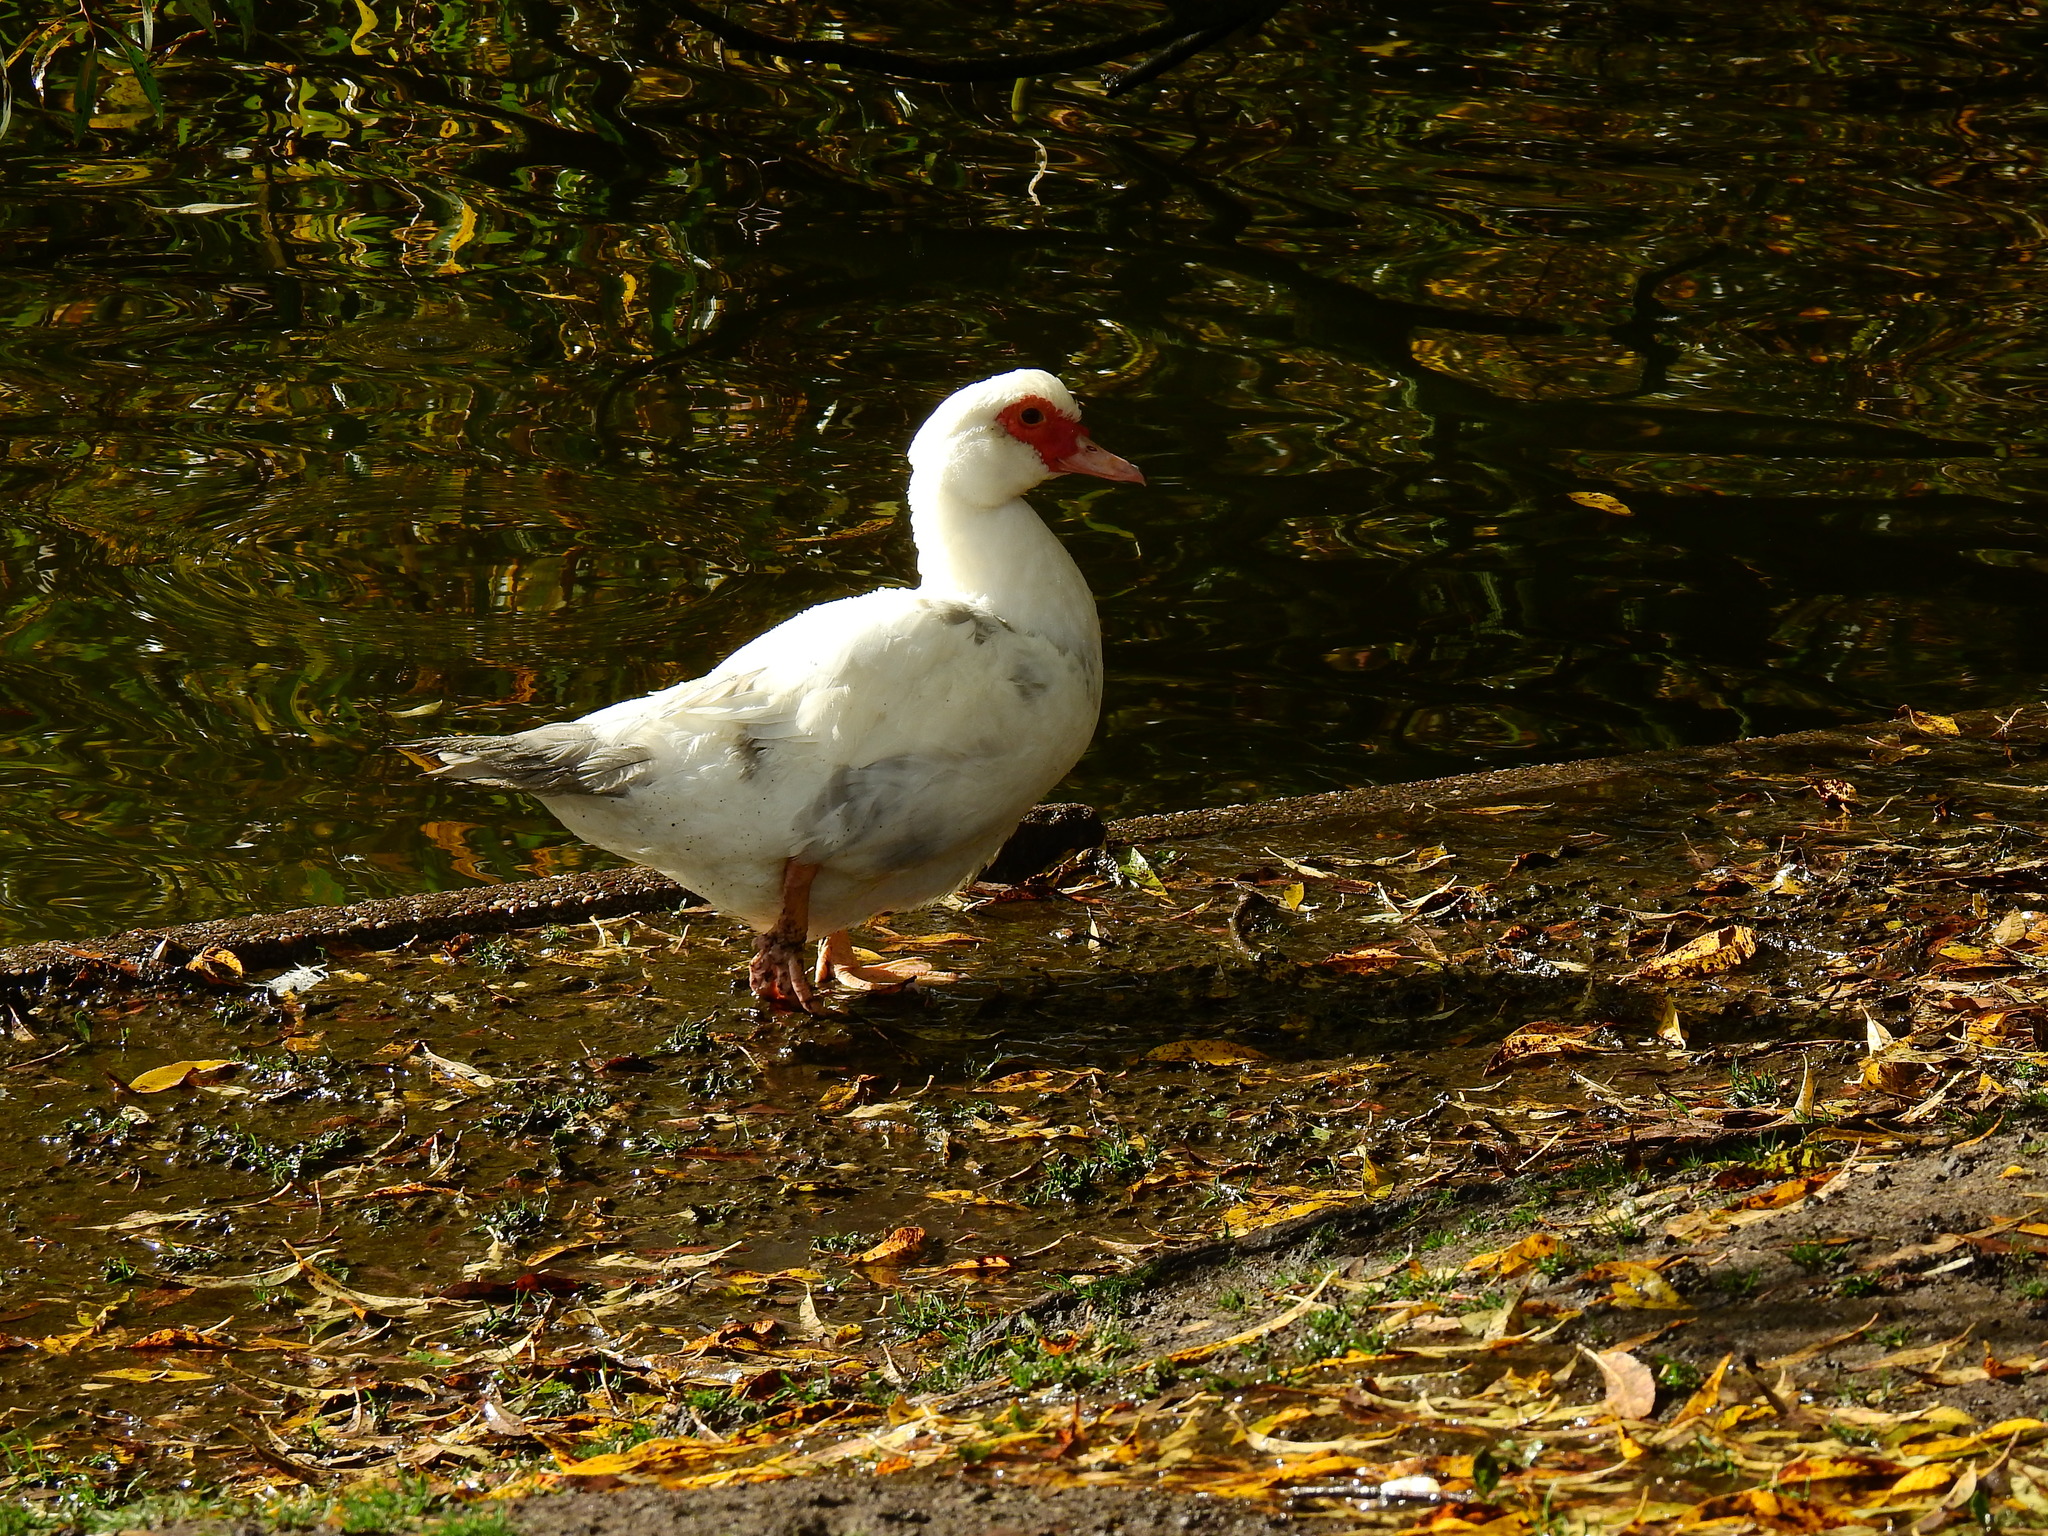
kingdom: Animalia
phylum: Chordata
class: Aves
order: Anseriformes
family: Anatidae
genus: Cairina
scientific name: Cairina moschata
